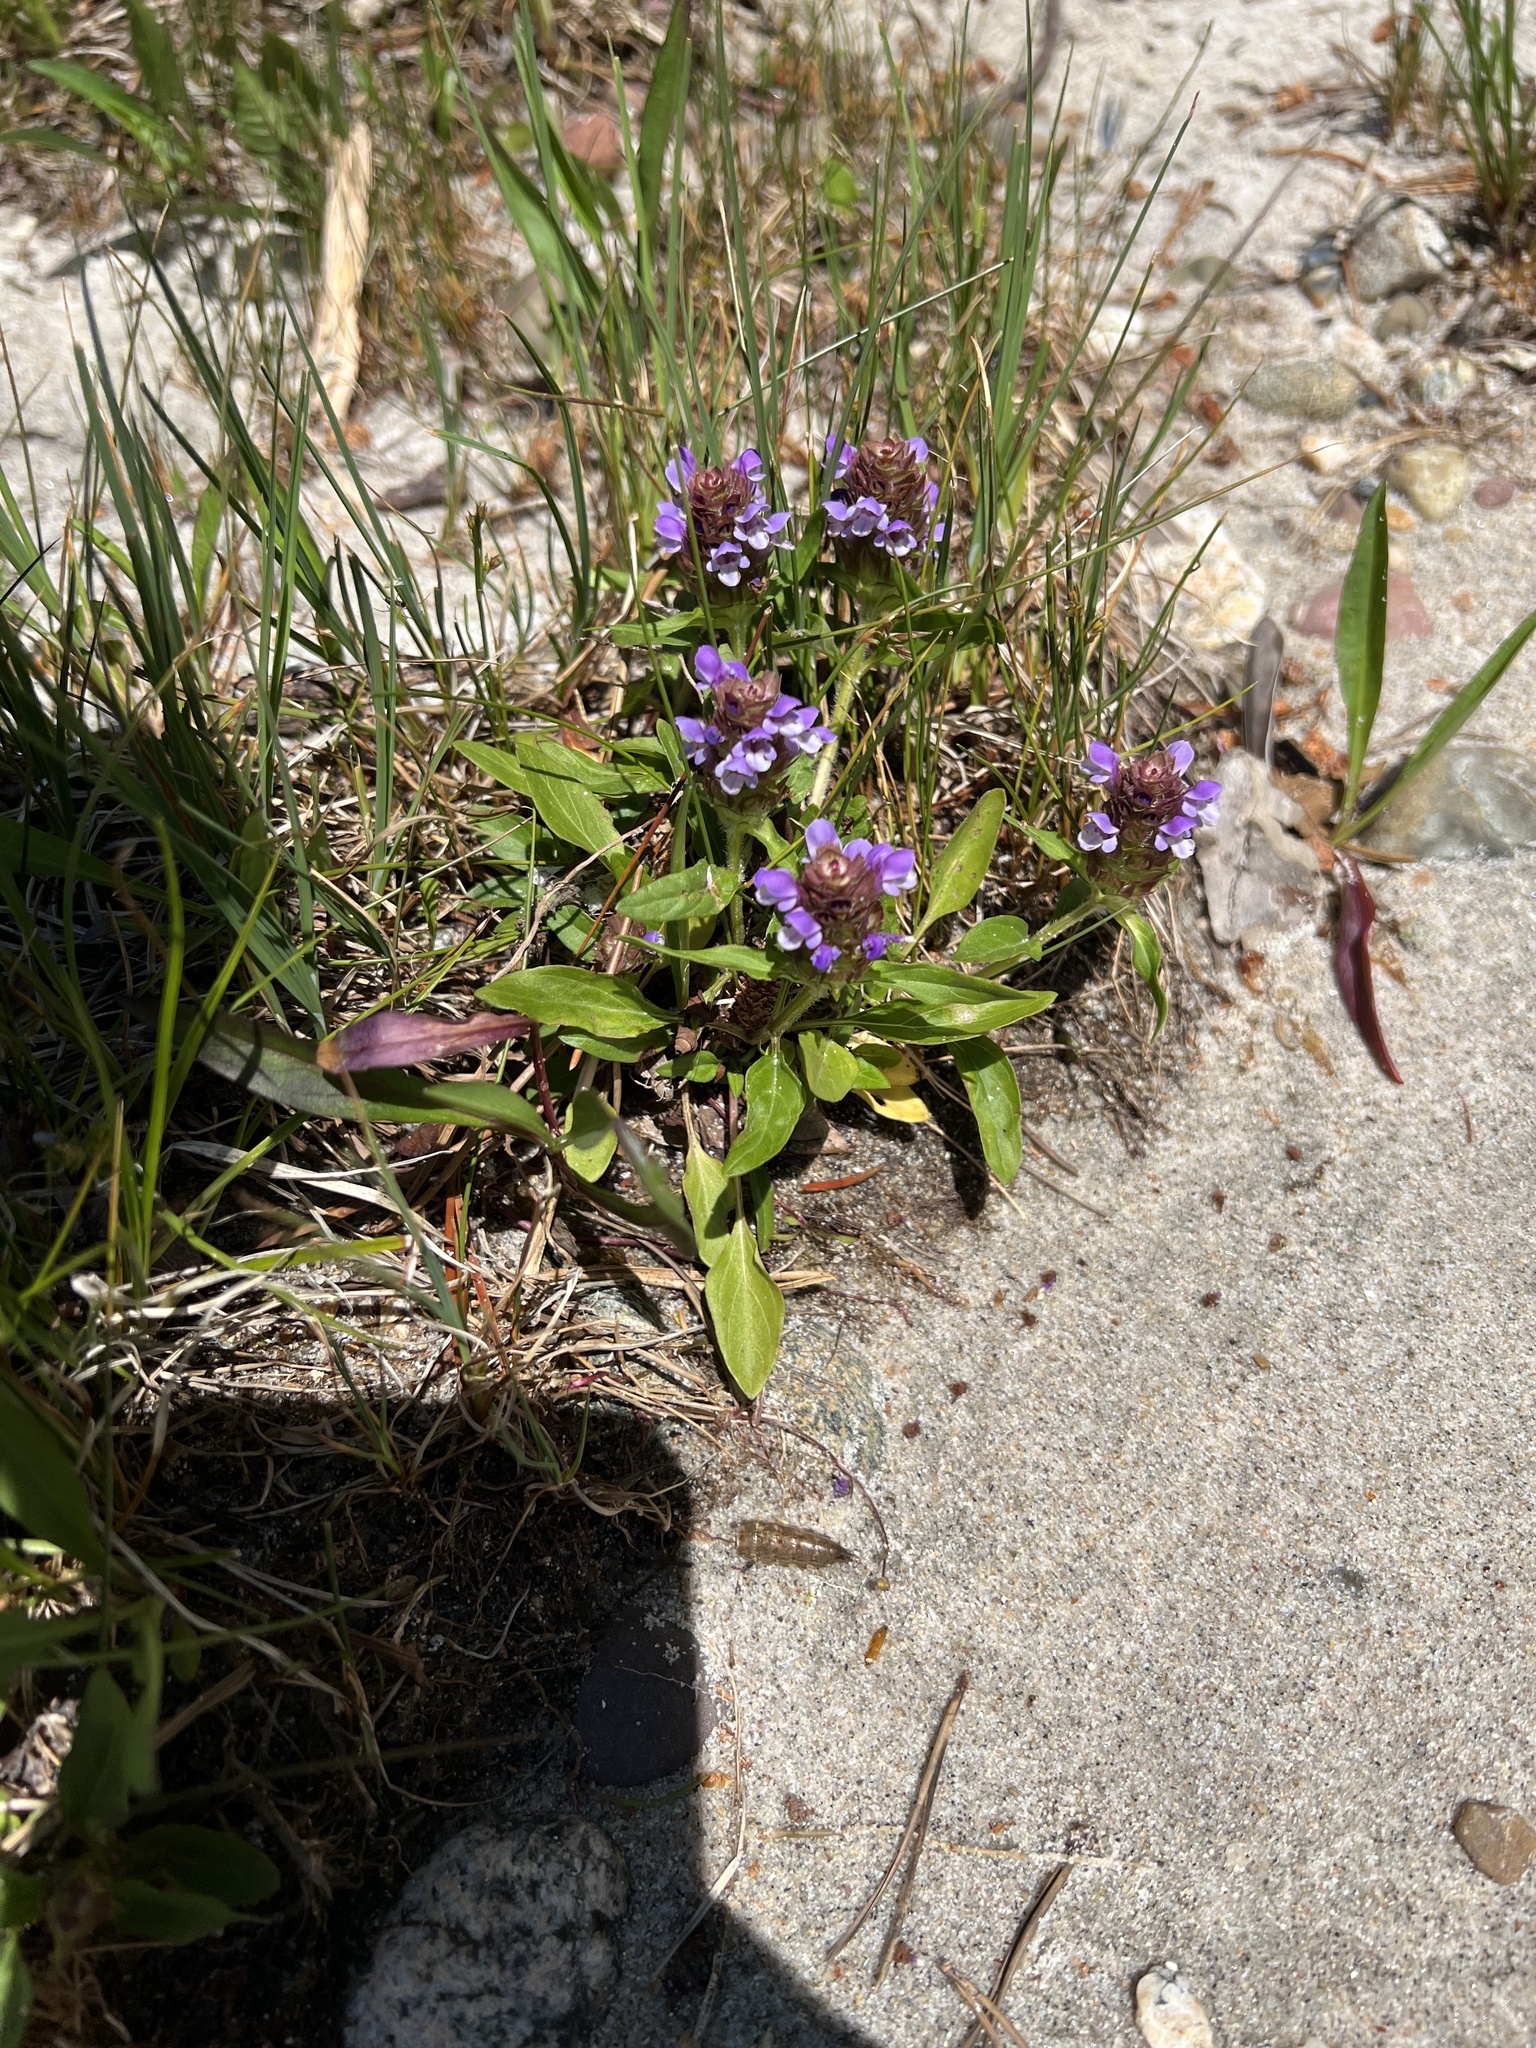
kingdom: Plantae
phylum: Tracheophyta
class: Magnoliopsida
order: Lamiales
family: Lamiaceae
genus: Prunella
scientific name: Prunella vulgaris
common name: Heal-all
